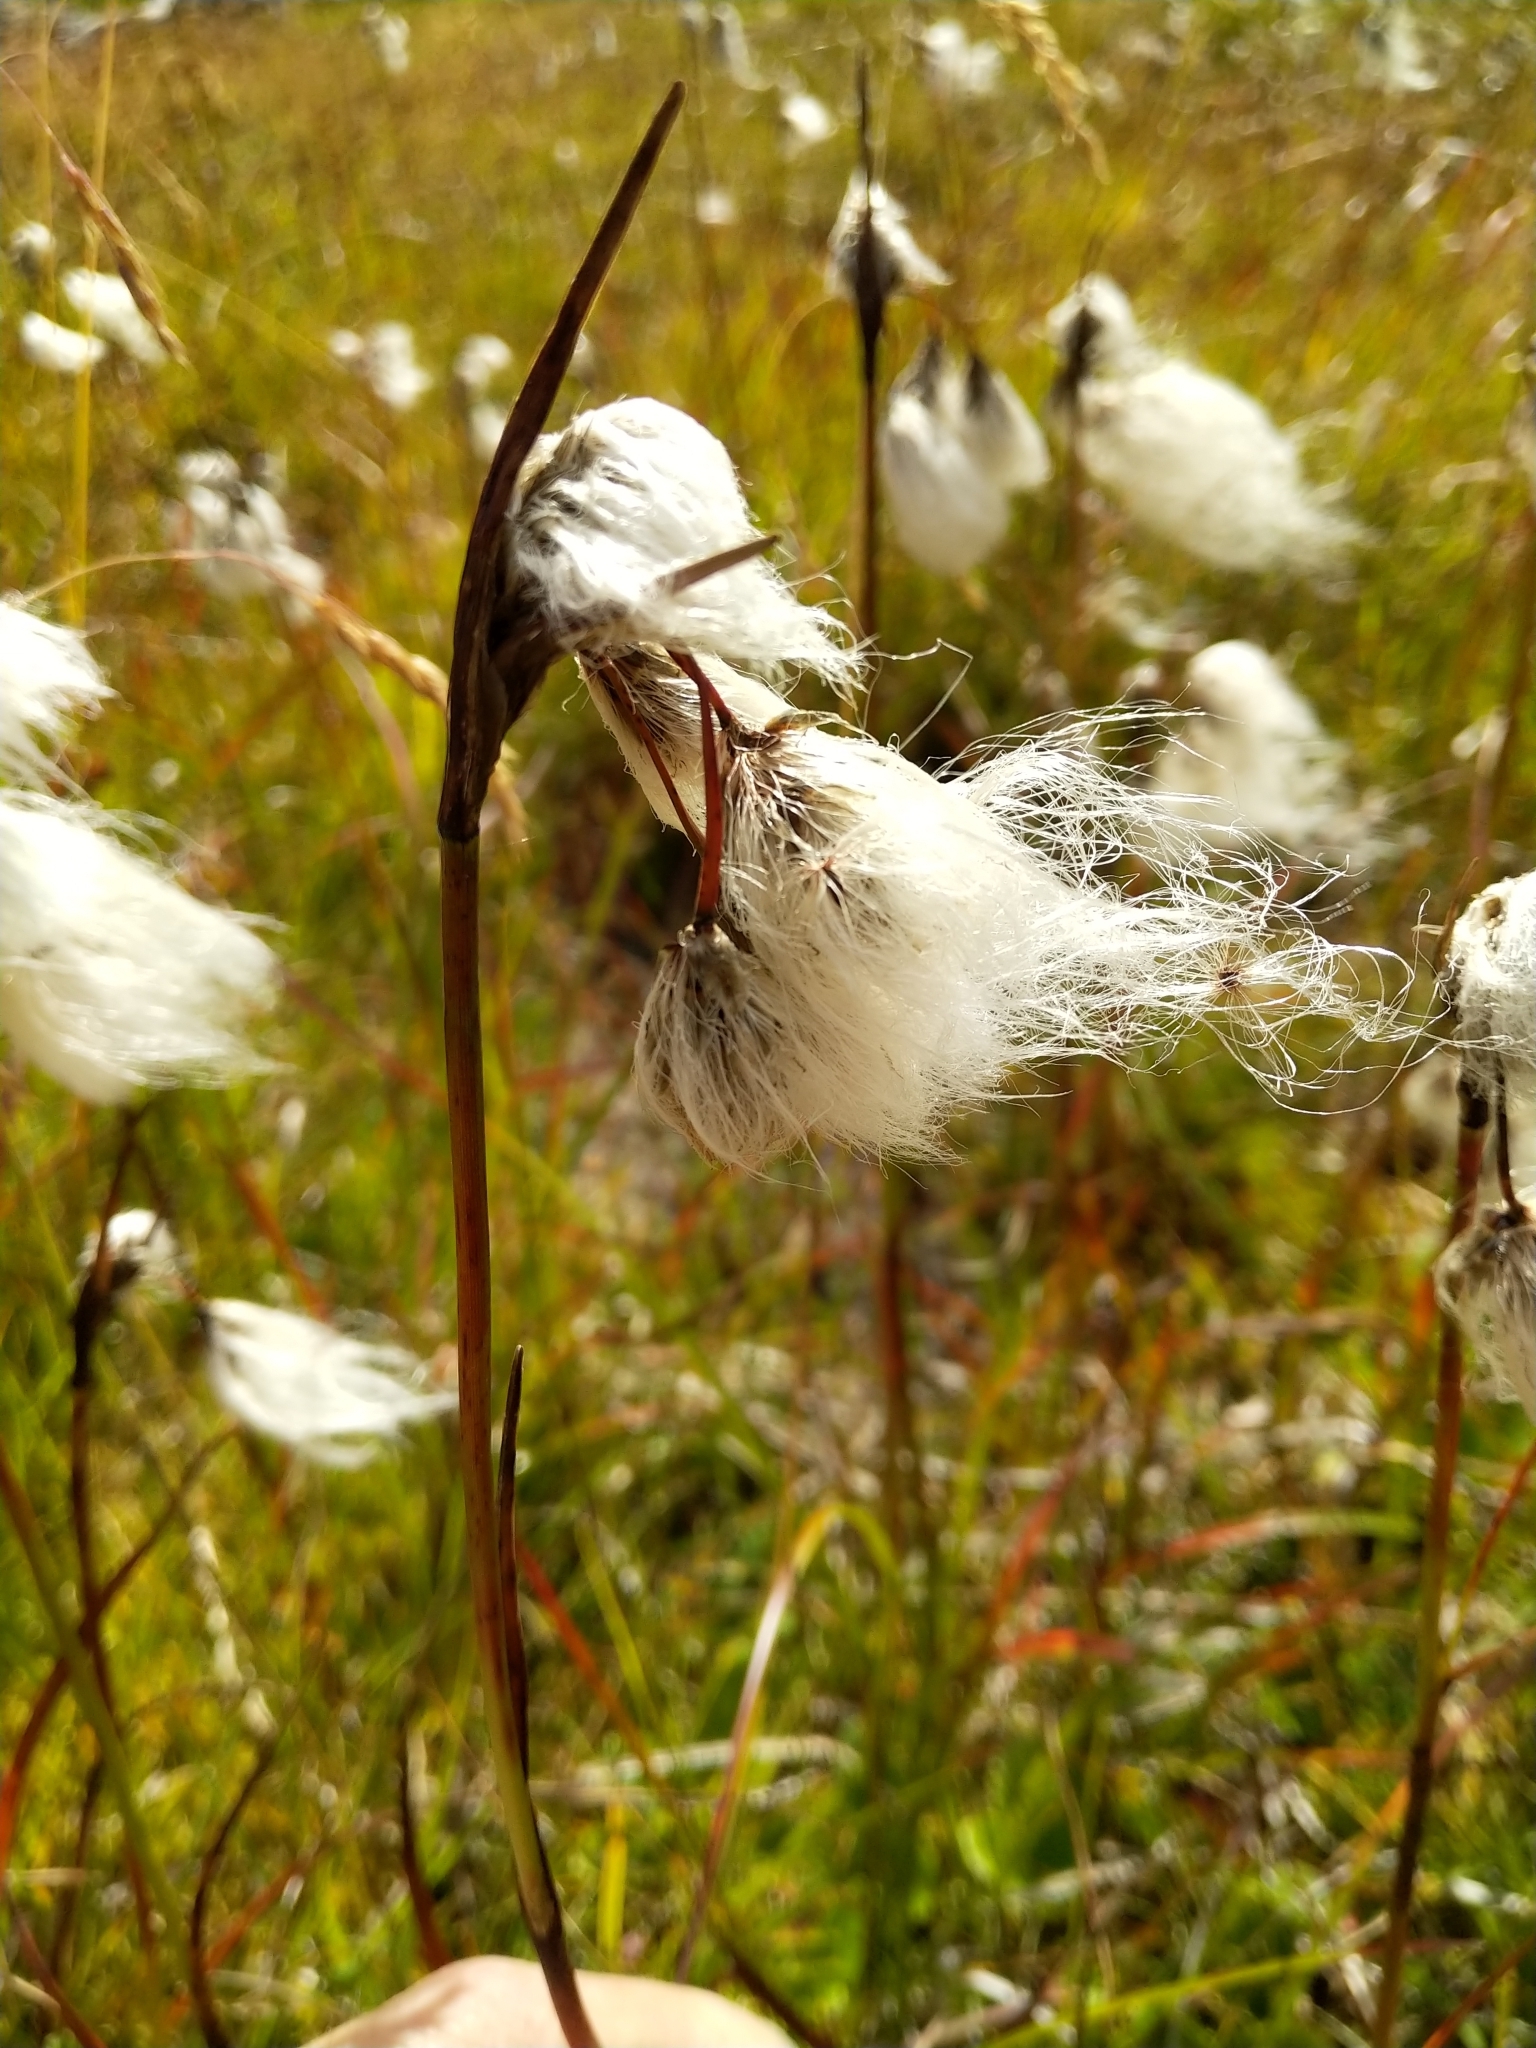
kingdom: Plantae
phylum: Tracheophyta
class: Liliopsida
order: Poales
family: Cyperaceae
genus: Eriophorum
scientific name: Eriophorum angustifolium
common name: Common cottongrass
